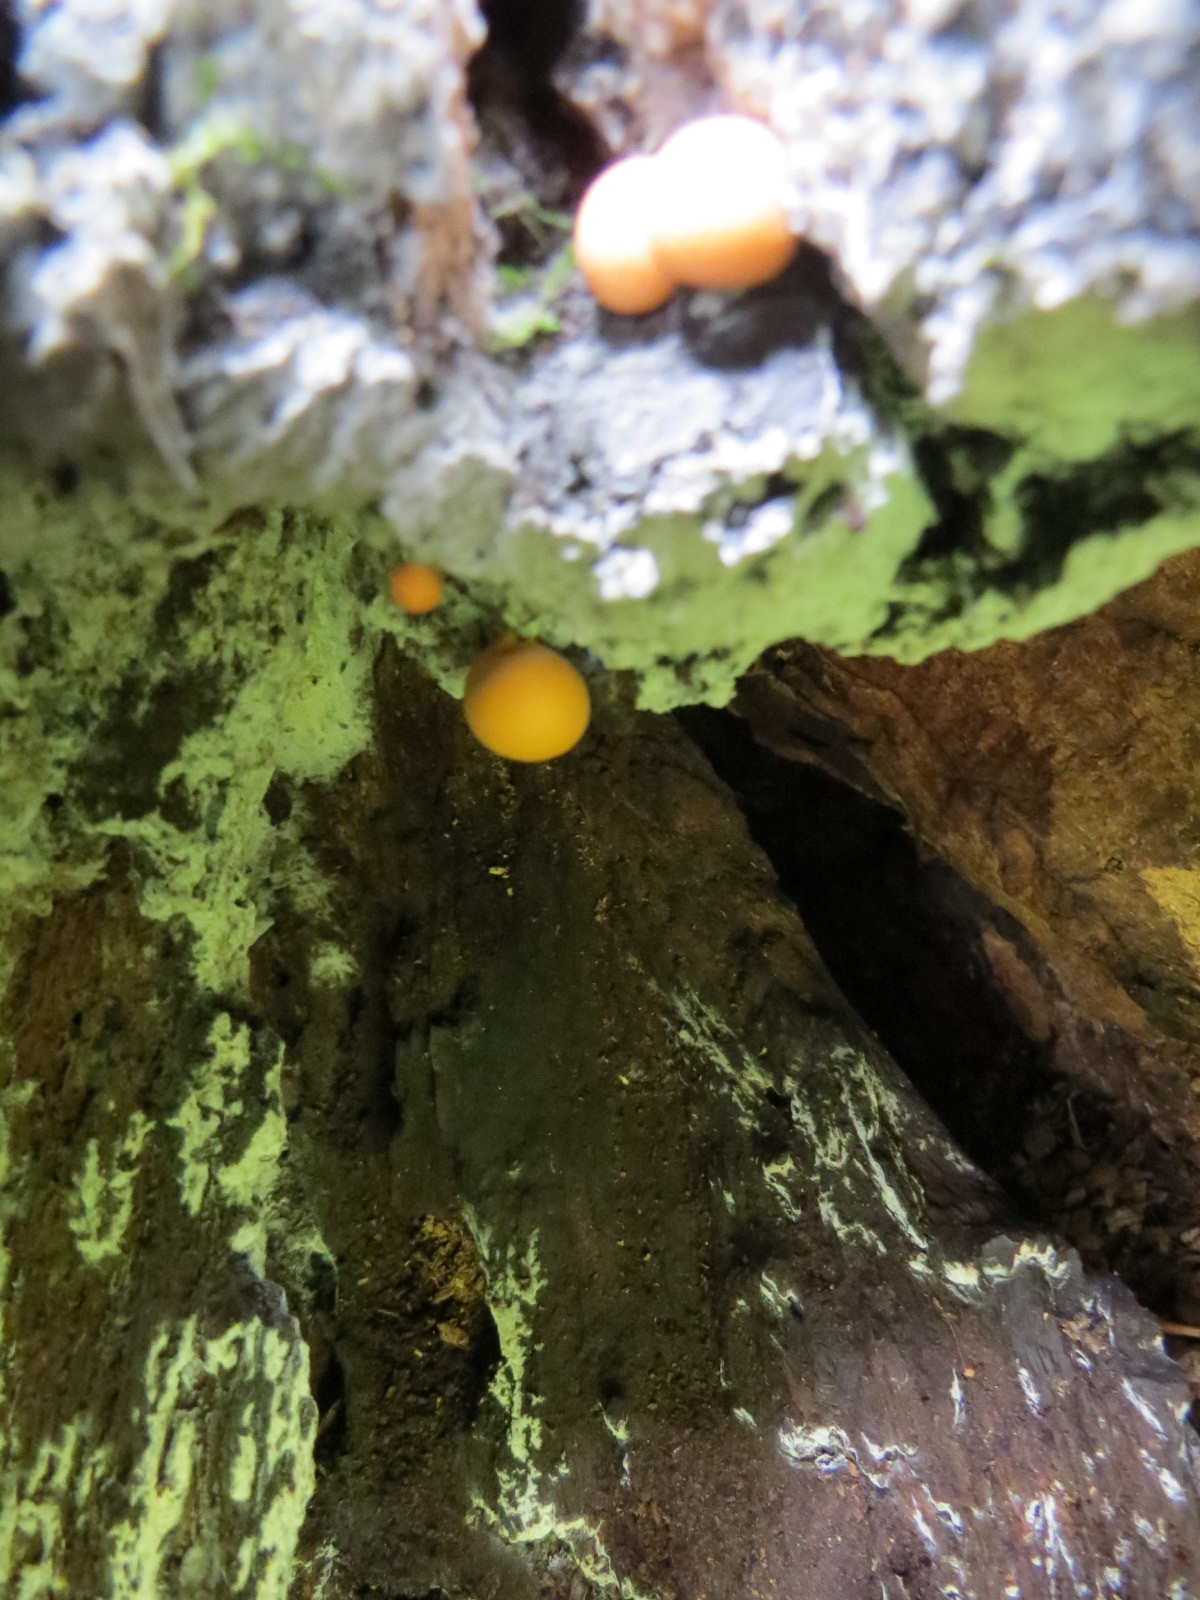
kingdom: Protozoa
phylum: Mycetozoa
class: Myxomycetes
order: Cribrariales
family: Tubiferaceae
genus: Lycogala
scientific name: Lycogala epidendrum
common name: Wolf's milk
